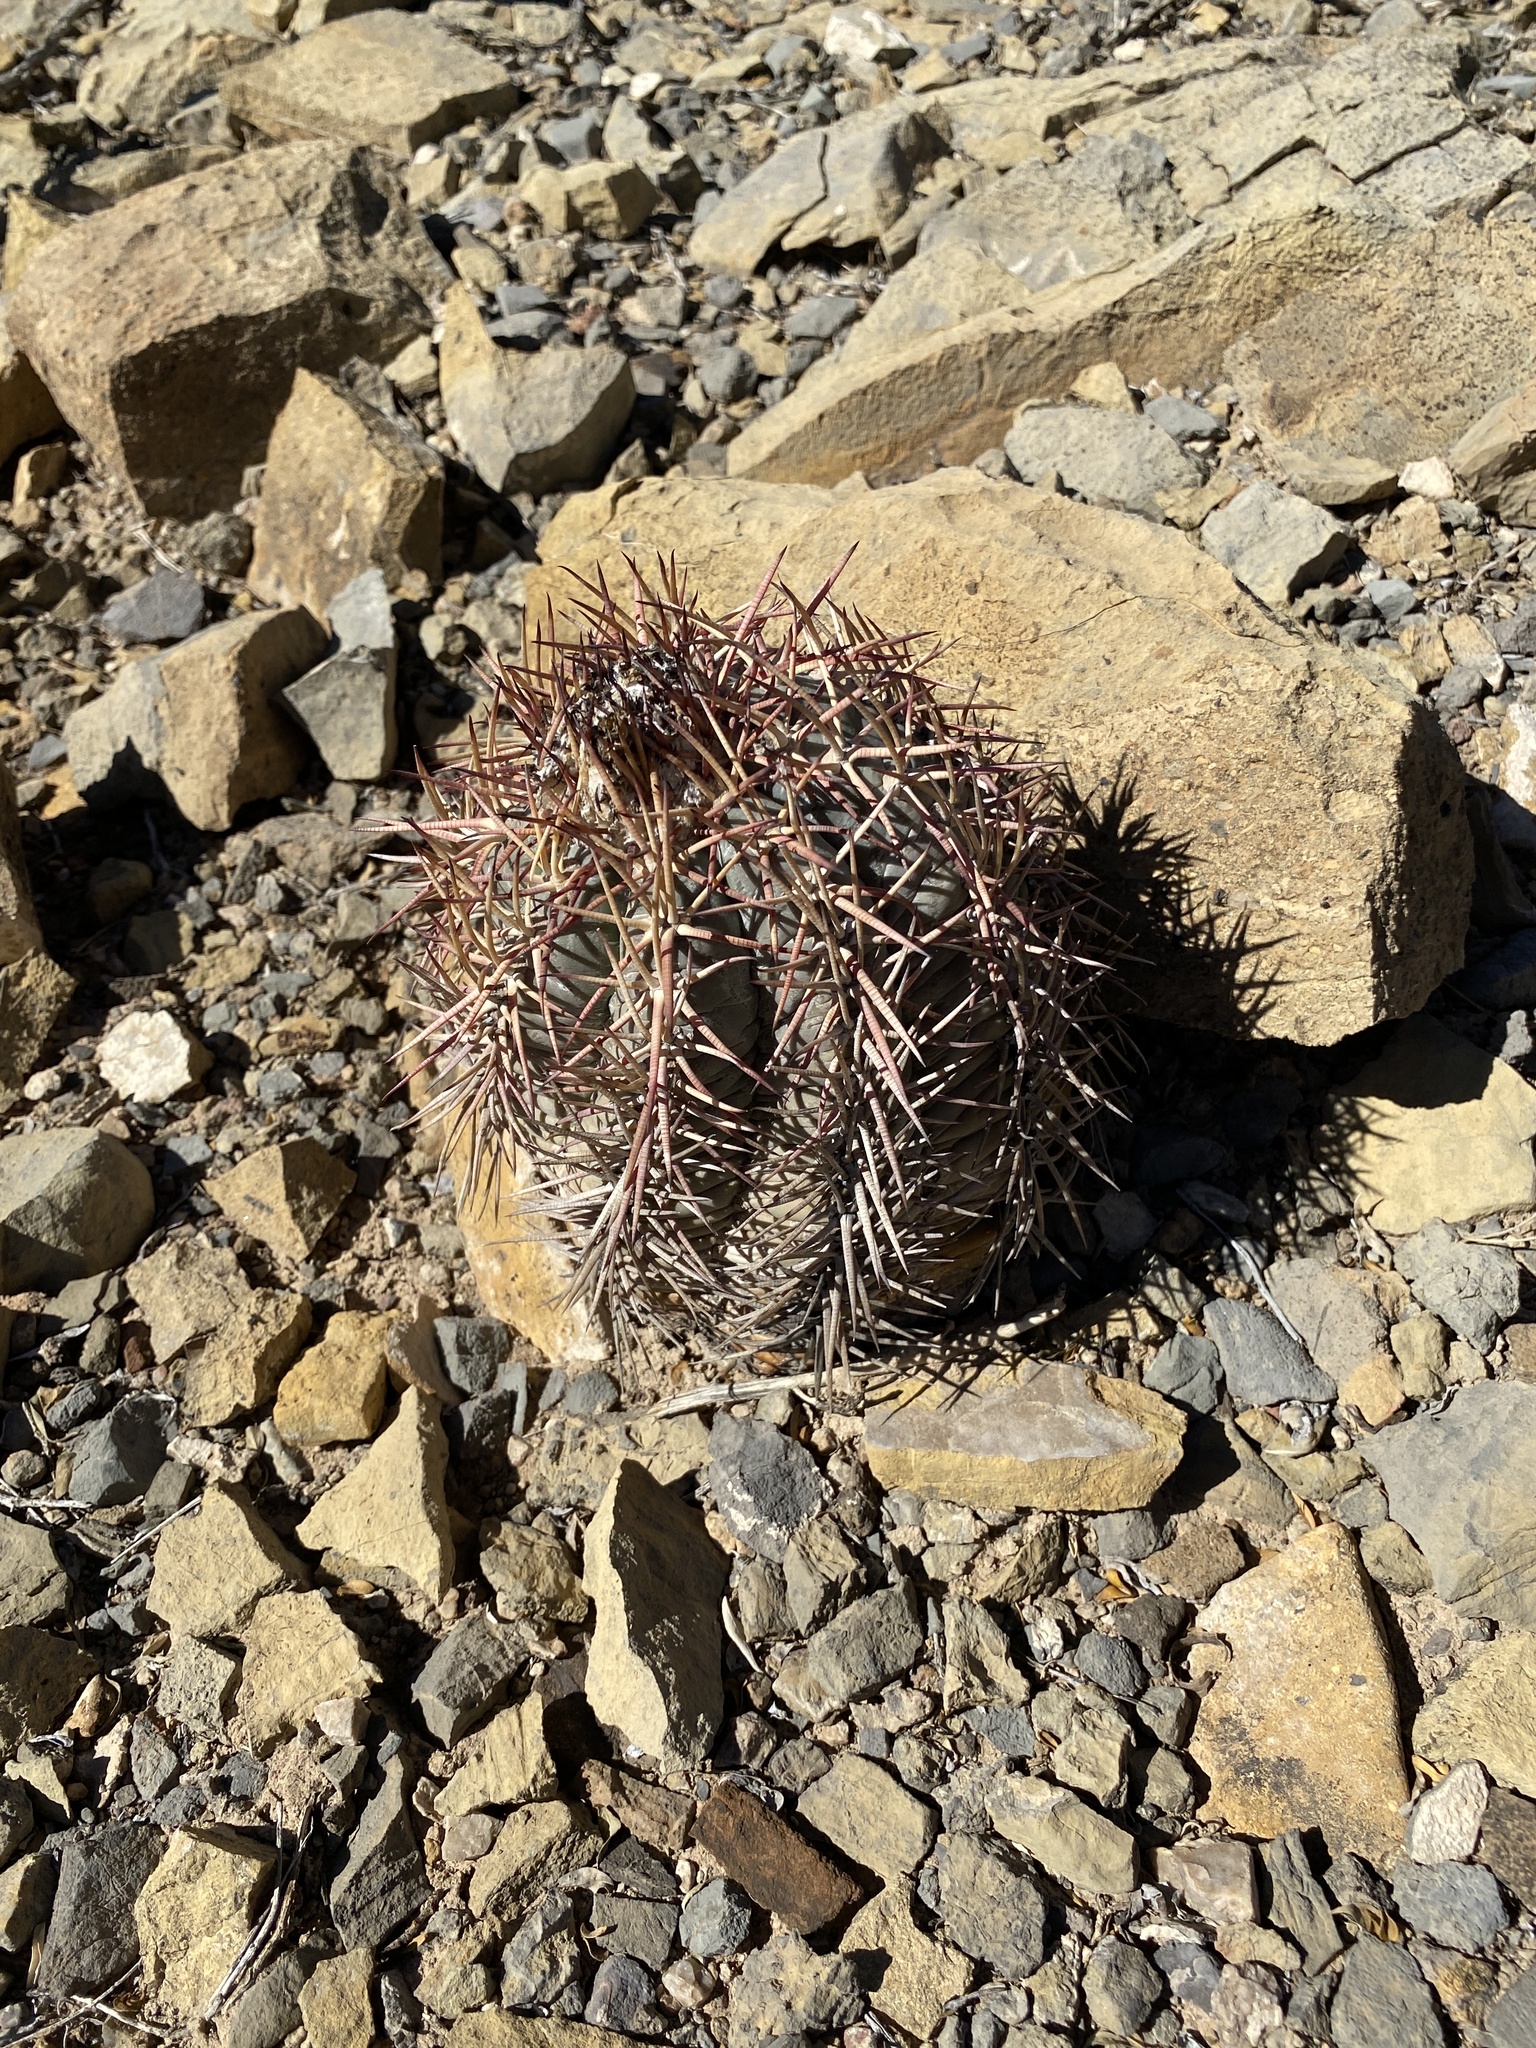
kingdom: Plantae
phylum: Tracheophyta
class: Magnoliopsida
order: Caryophyllales
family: Cactaceae
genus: Echinocactus
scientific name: Echinocactus horizonthalonius
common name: Devilshead
